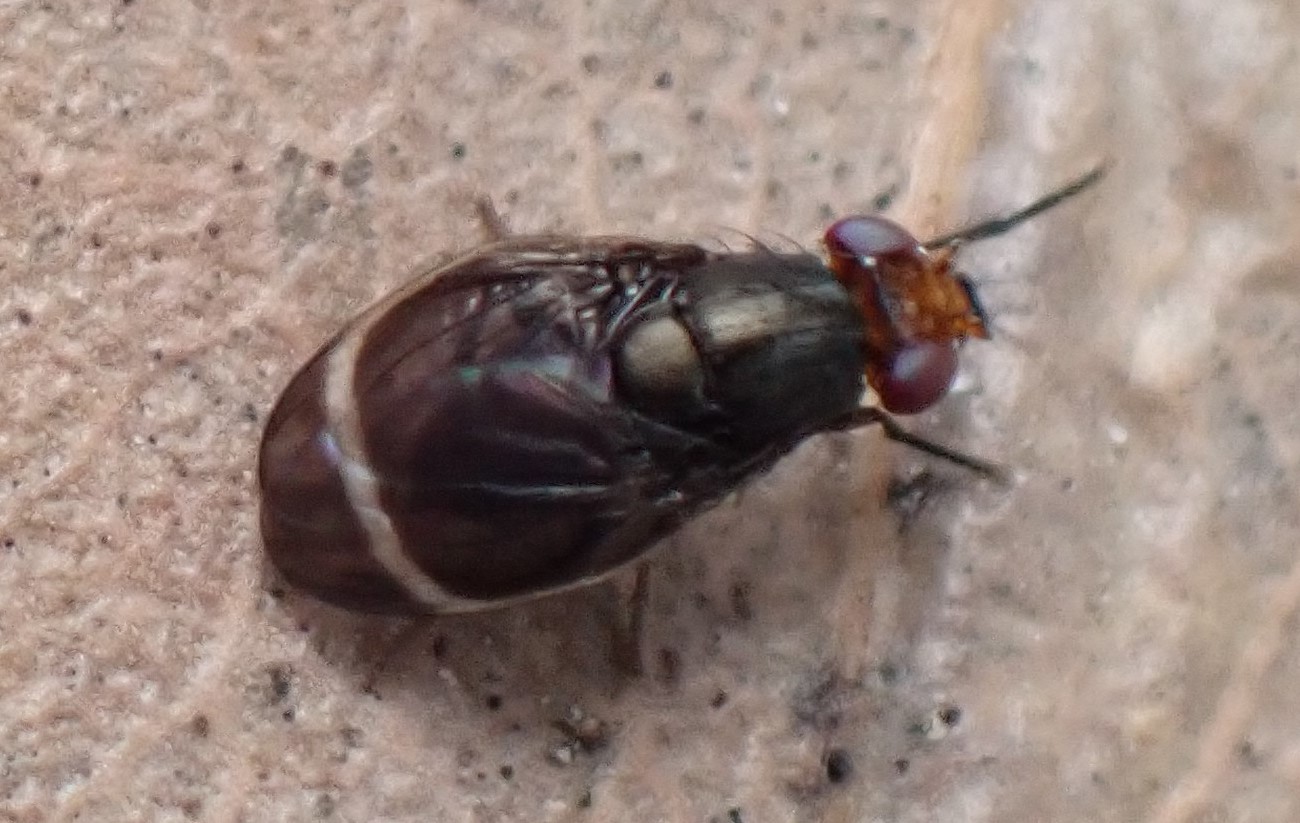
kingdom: Animalia
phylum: Arthropoda
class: Insecta
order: Diptera
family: Lauxaniidae
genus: Depressa
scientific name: Depressa atrata
